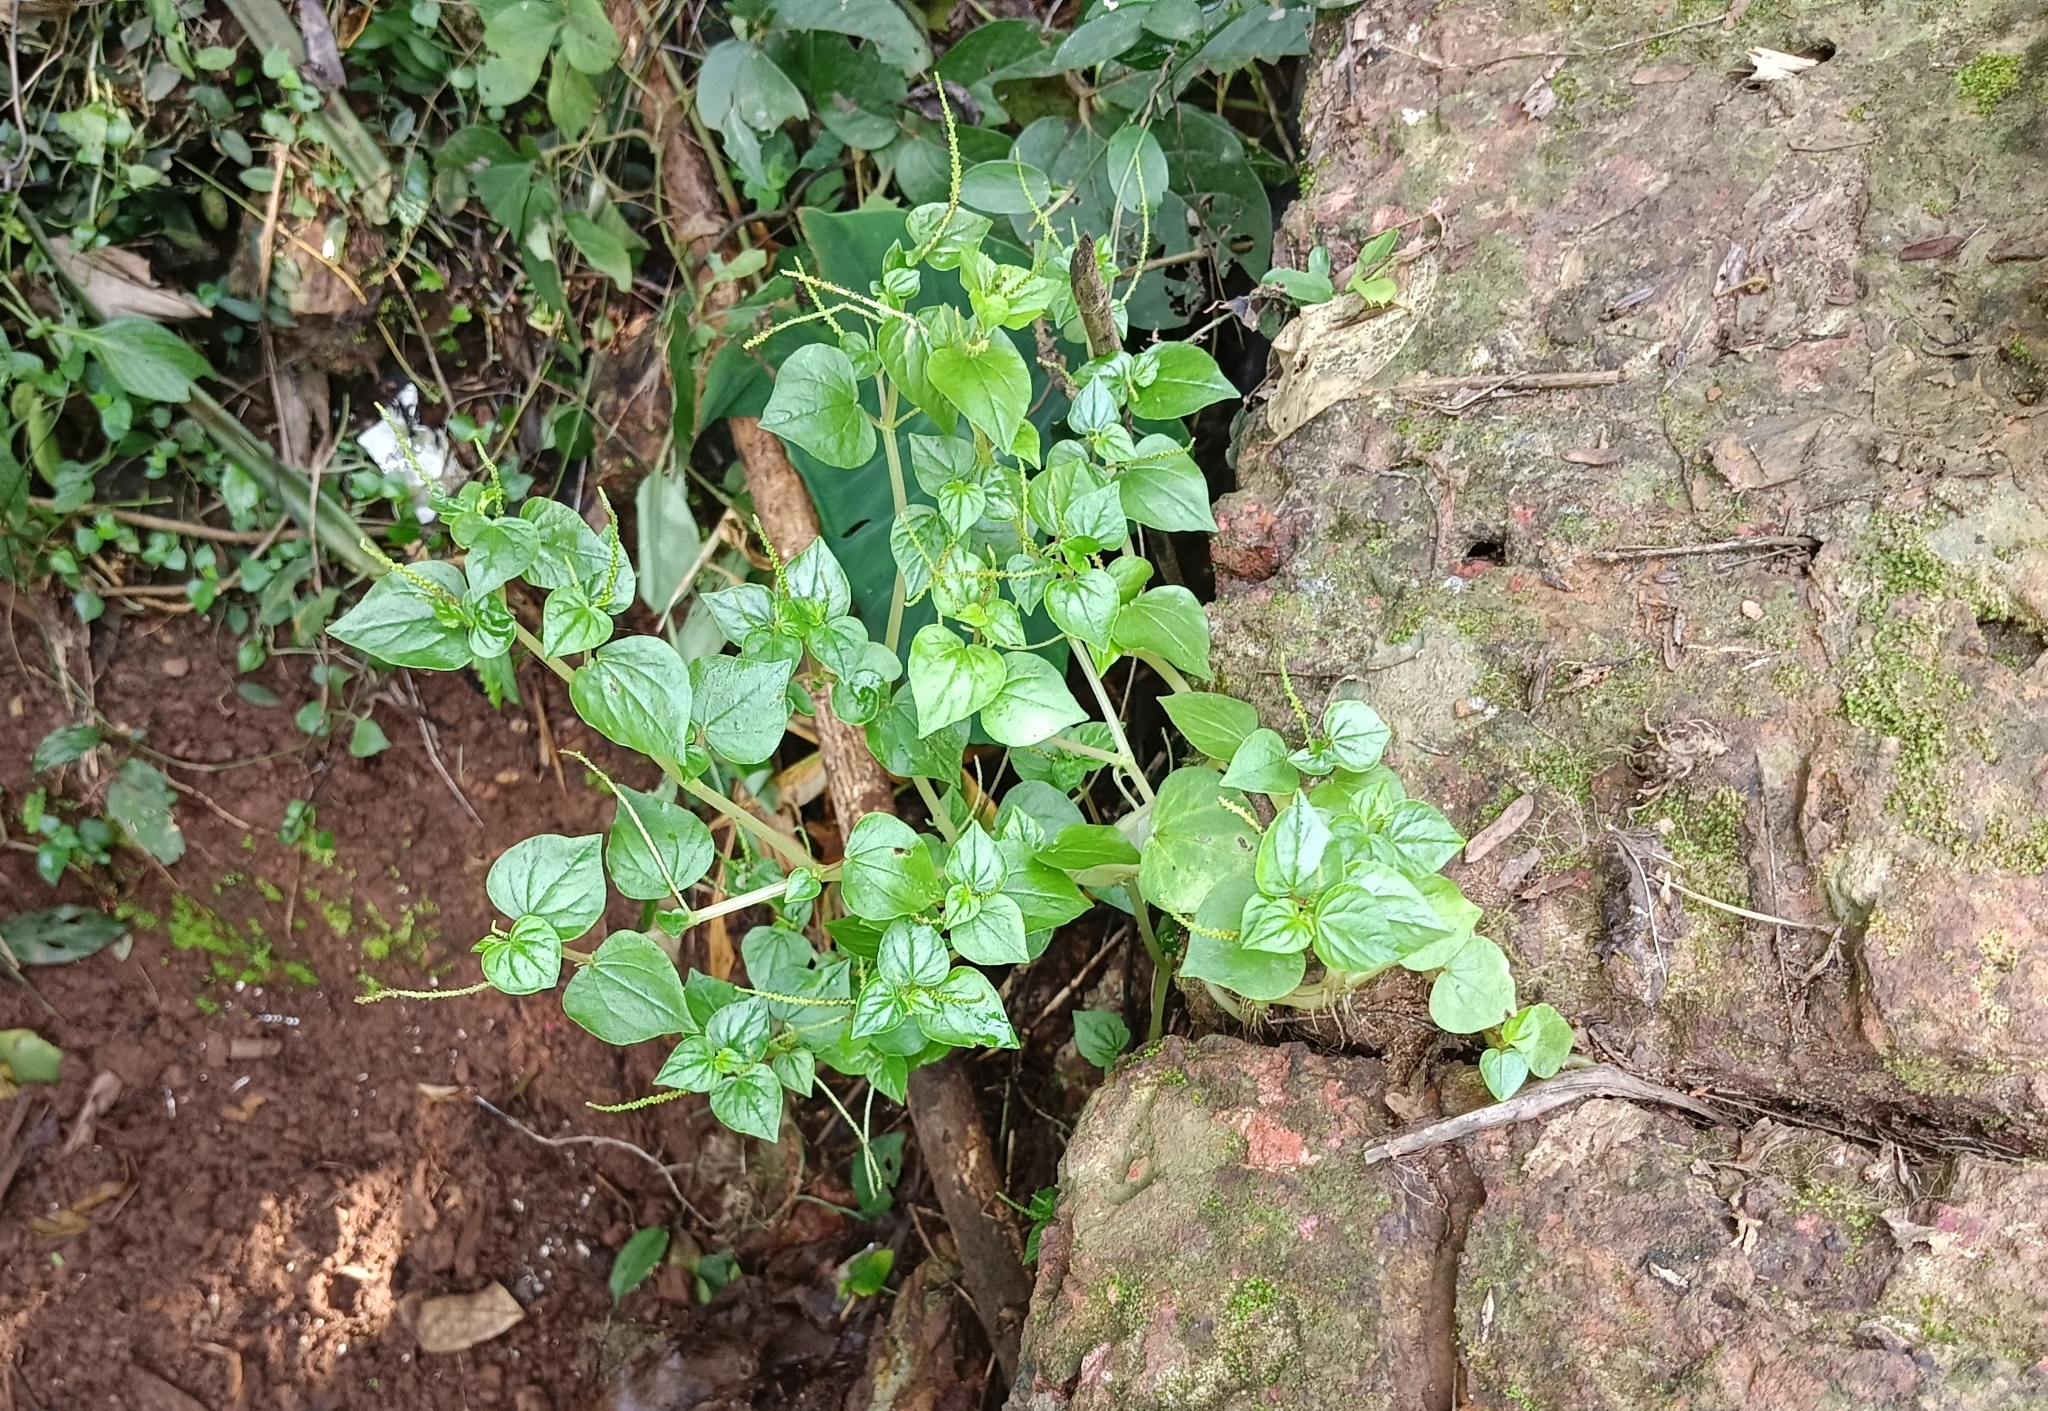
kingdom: Plantae
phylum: Tracheophyta
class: Magnoliopsida
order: Piperales
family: Piperaceae
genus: Peperomia
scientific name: Peperomia pellucida
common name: Man to man
